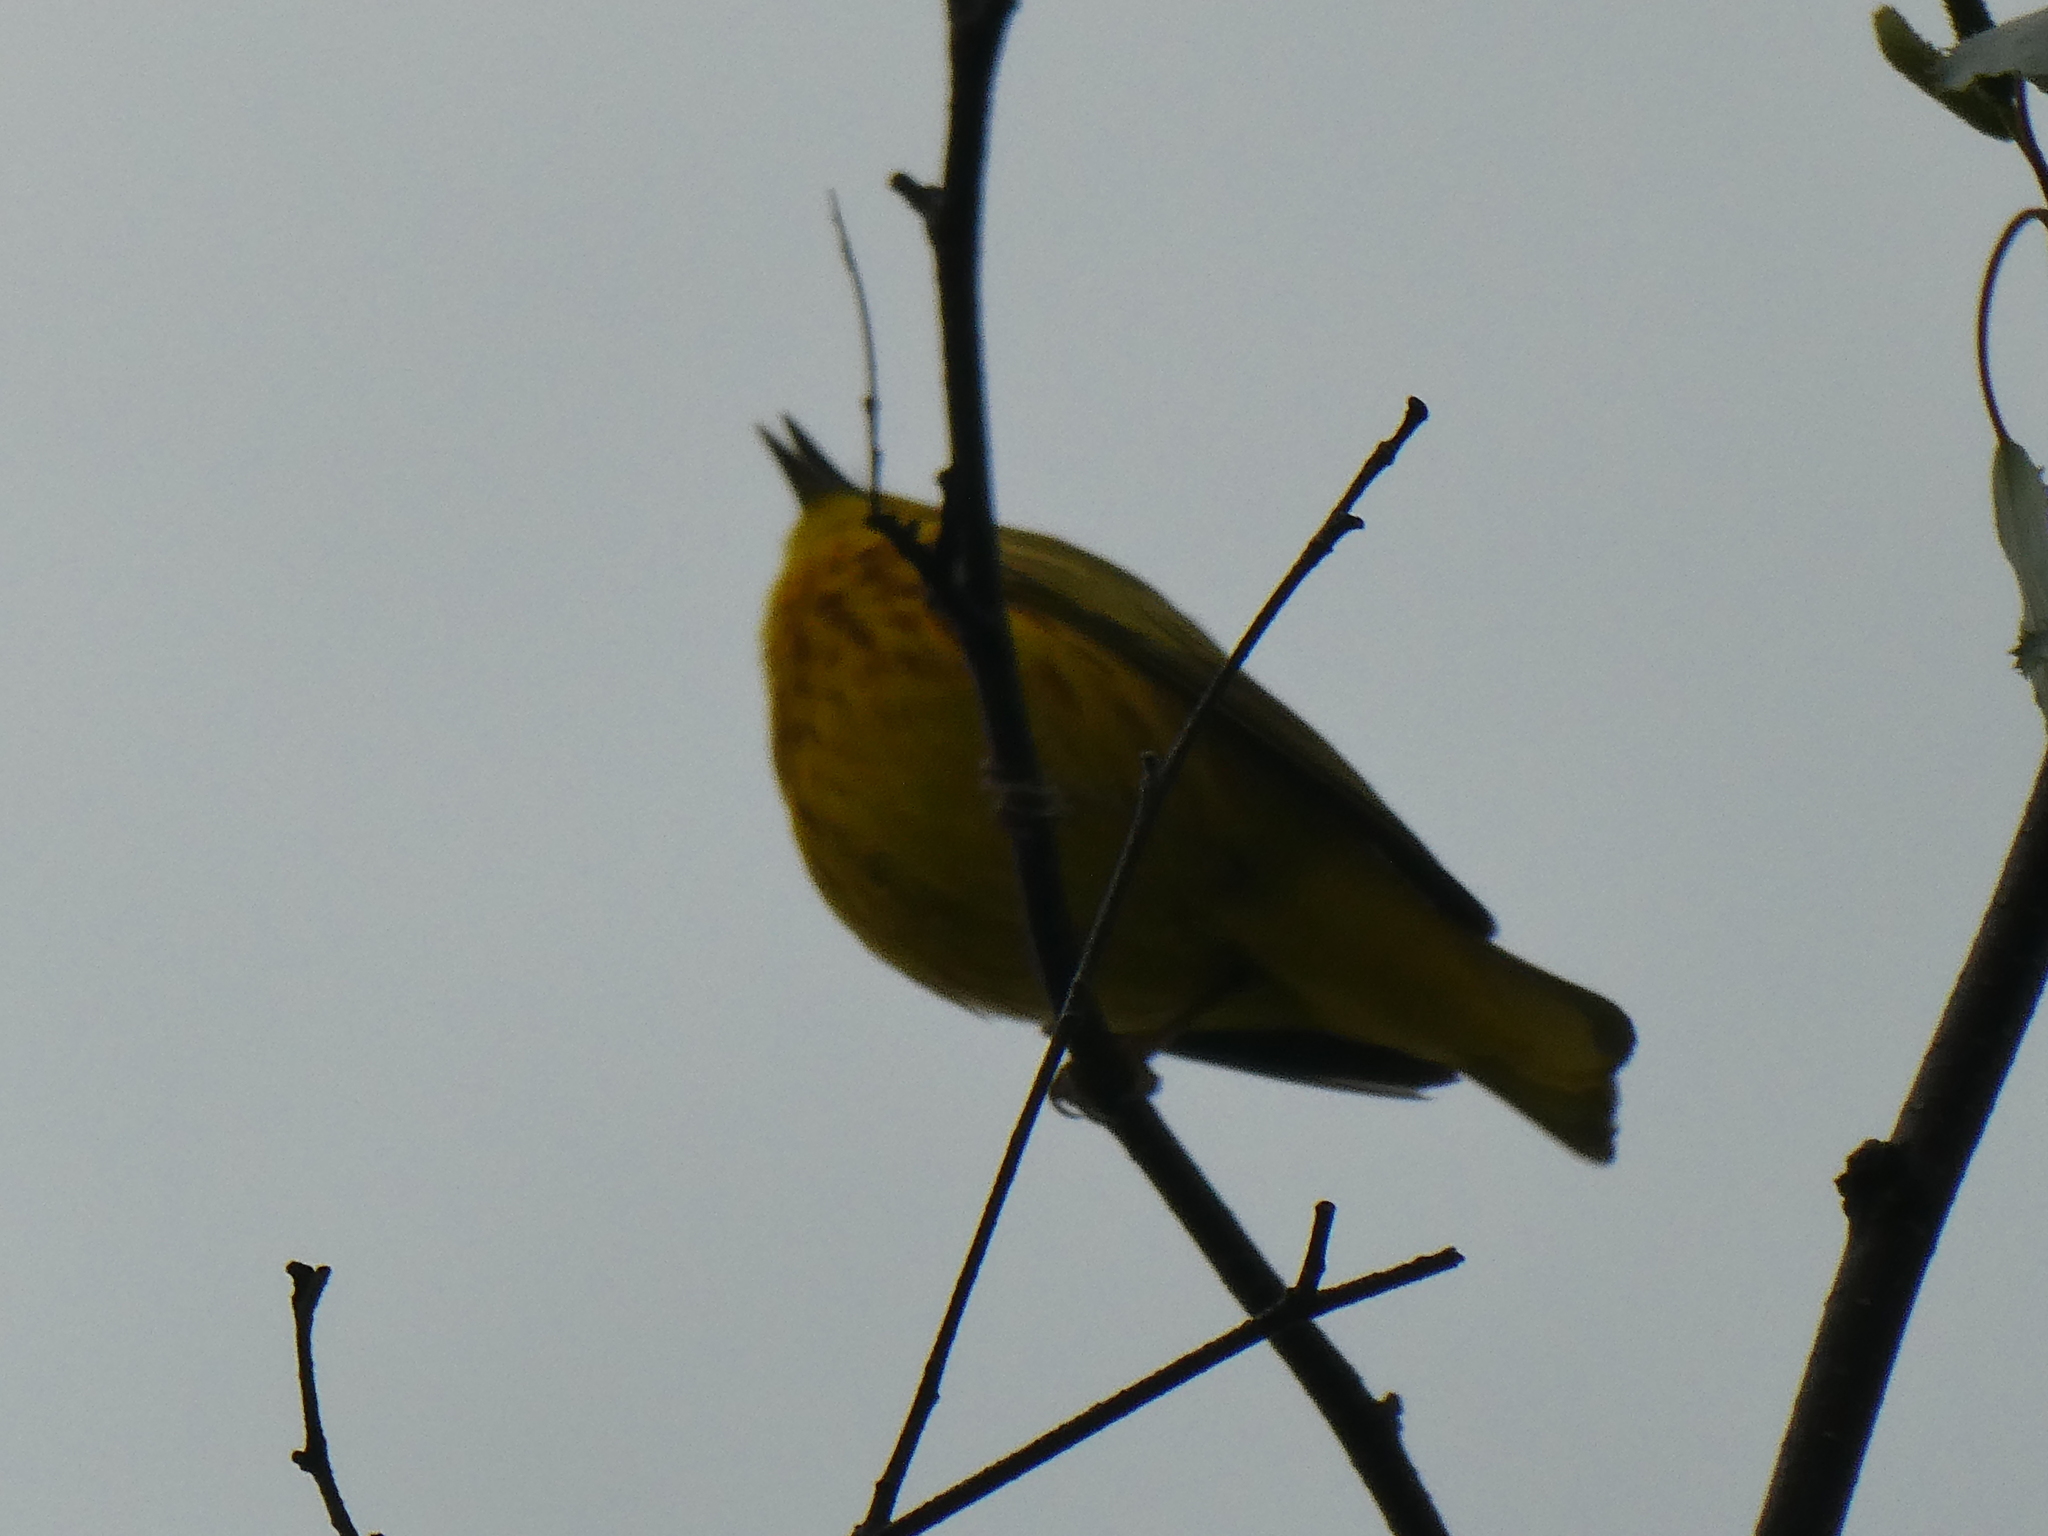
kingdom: Animalia
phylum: Chordata
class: Aves
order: Passeriformes
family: Parulidae
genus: Setophaga
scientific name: Setophaga petechia
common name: Yellow warbler
